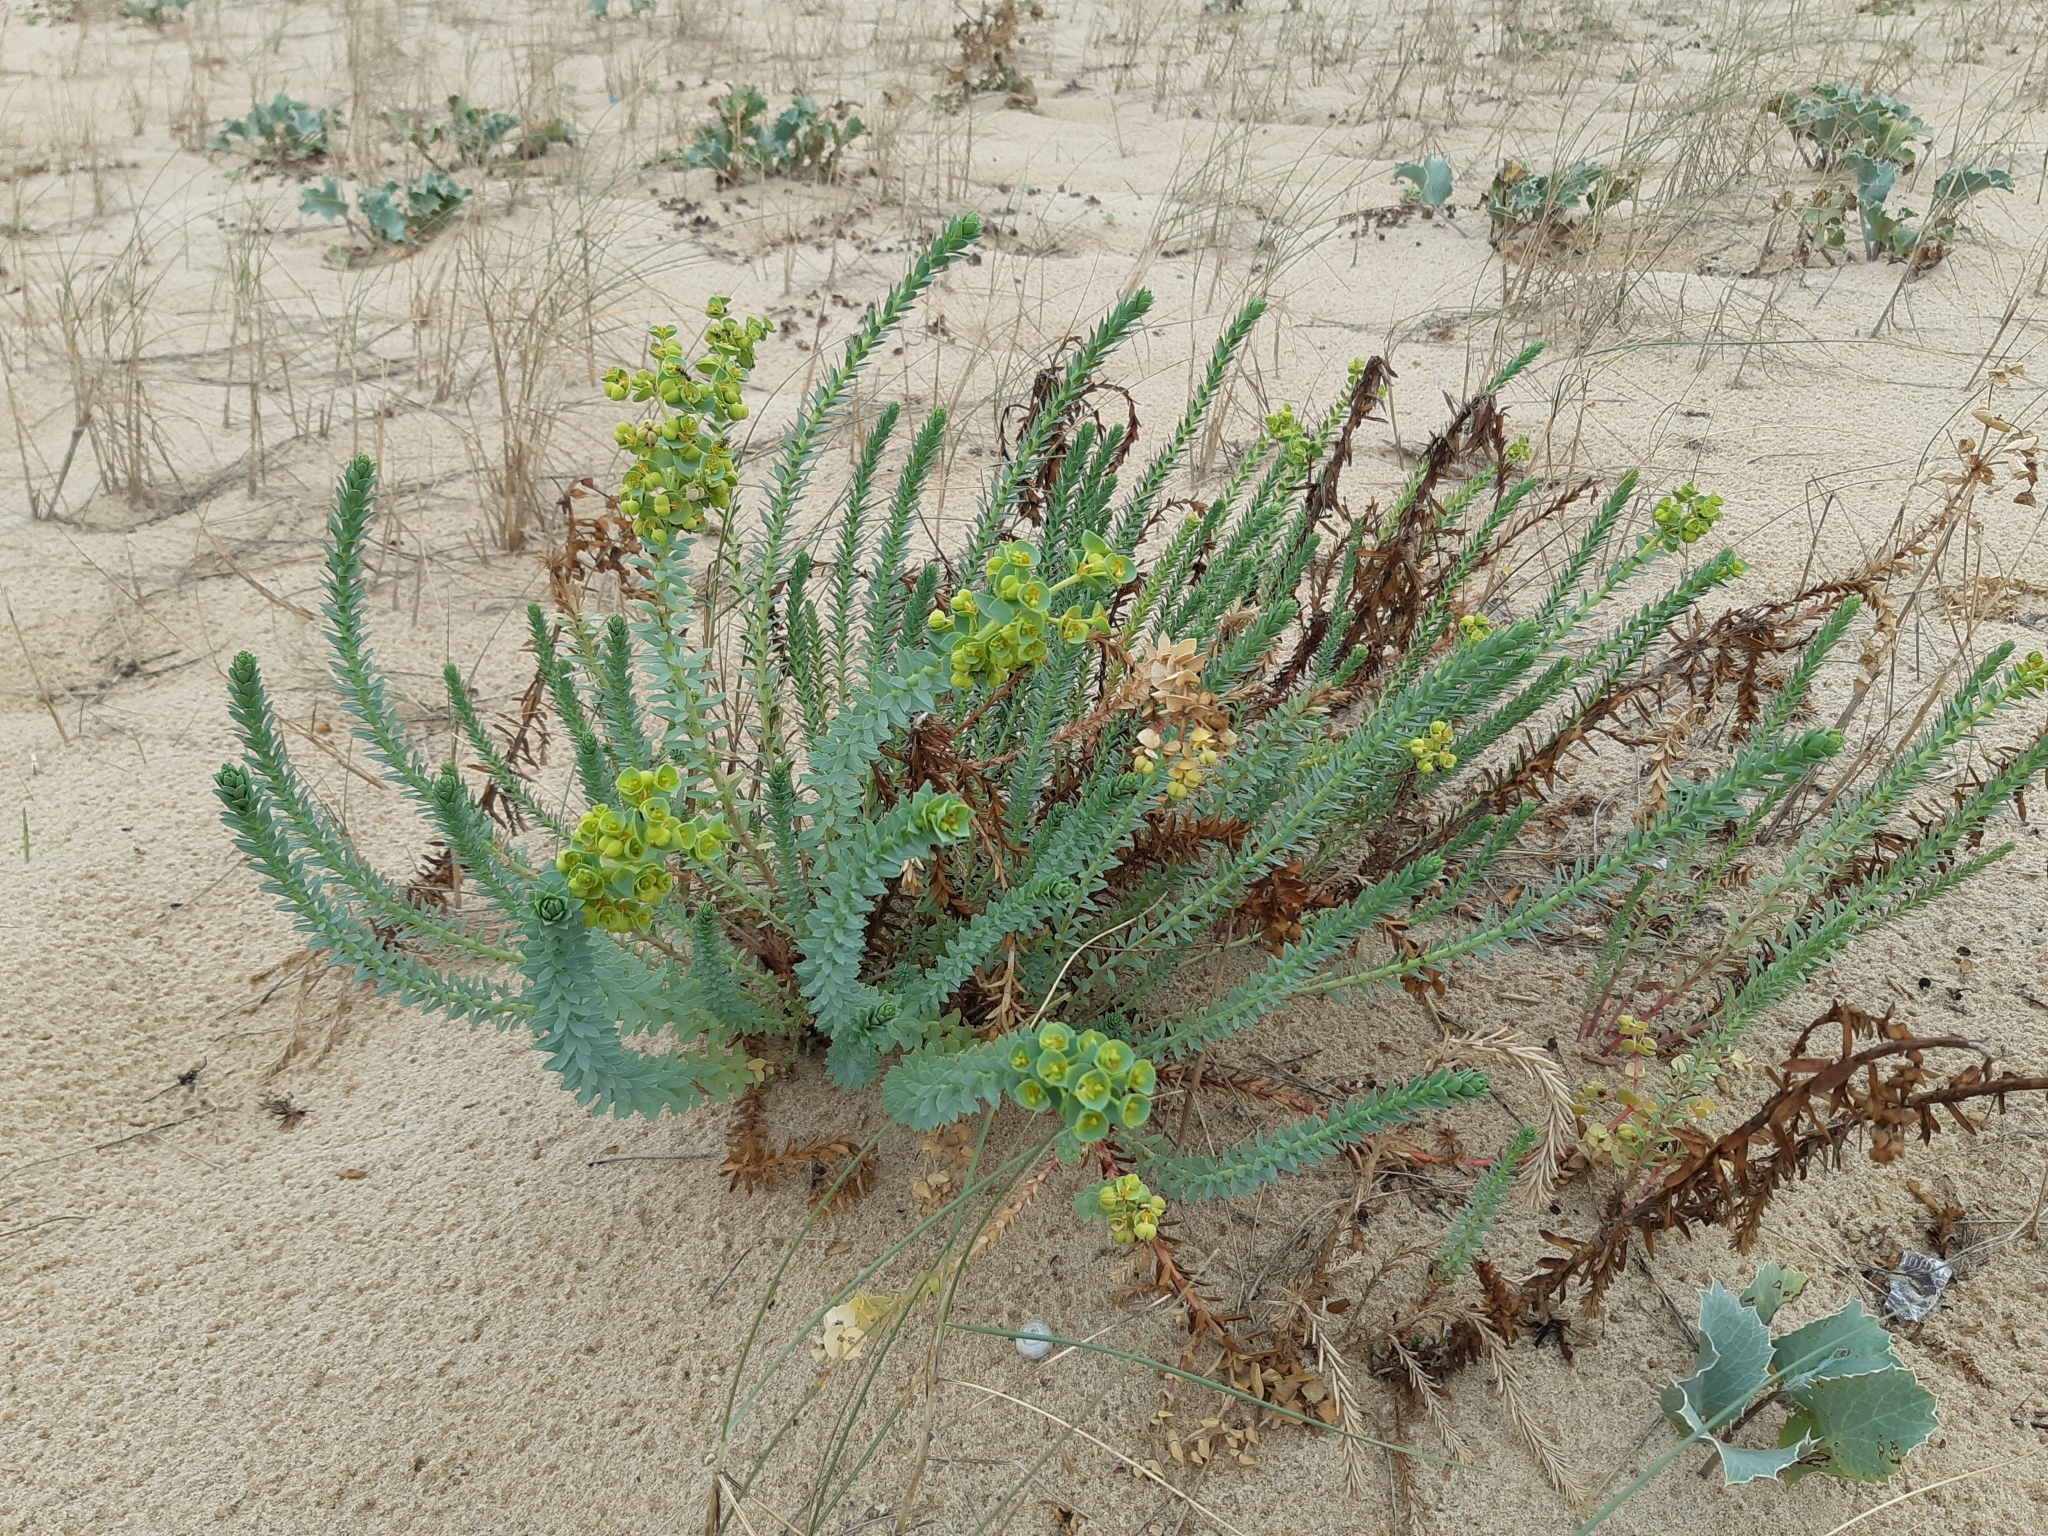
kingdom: Plantae
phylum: Tracheophyta
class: Magnoliopsida
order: Malpighiales
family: Euphorbiaceae
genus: Euphorbia
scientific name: Euphorbia paralias
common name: Sea spurge
